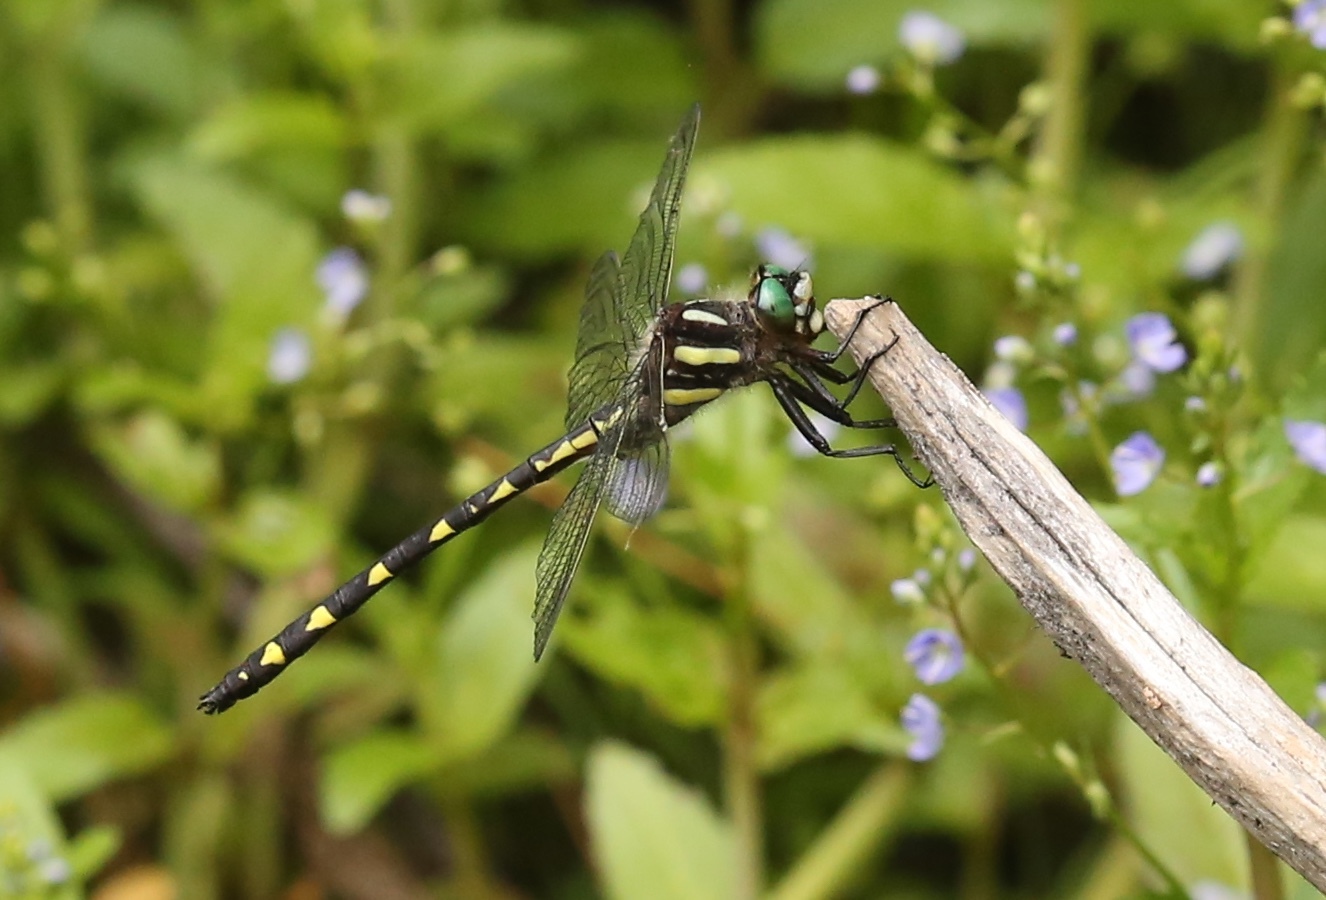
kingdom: Animalia
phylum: Arthropoda
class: Insecta
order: Odonata
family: Cordulegastridae
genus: Cordulegaster
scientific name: Cordulegaster diastatops
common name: Delta-spotted spiketail
